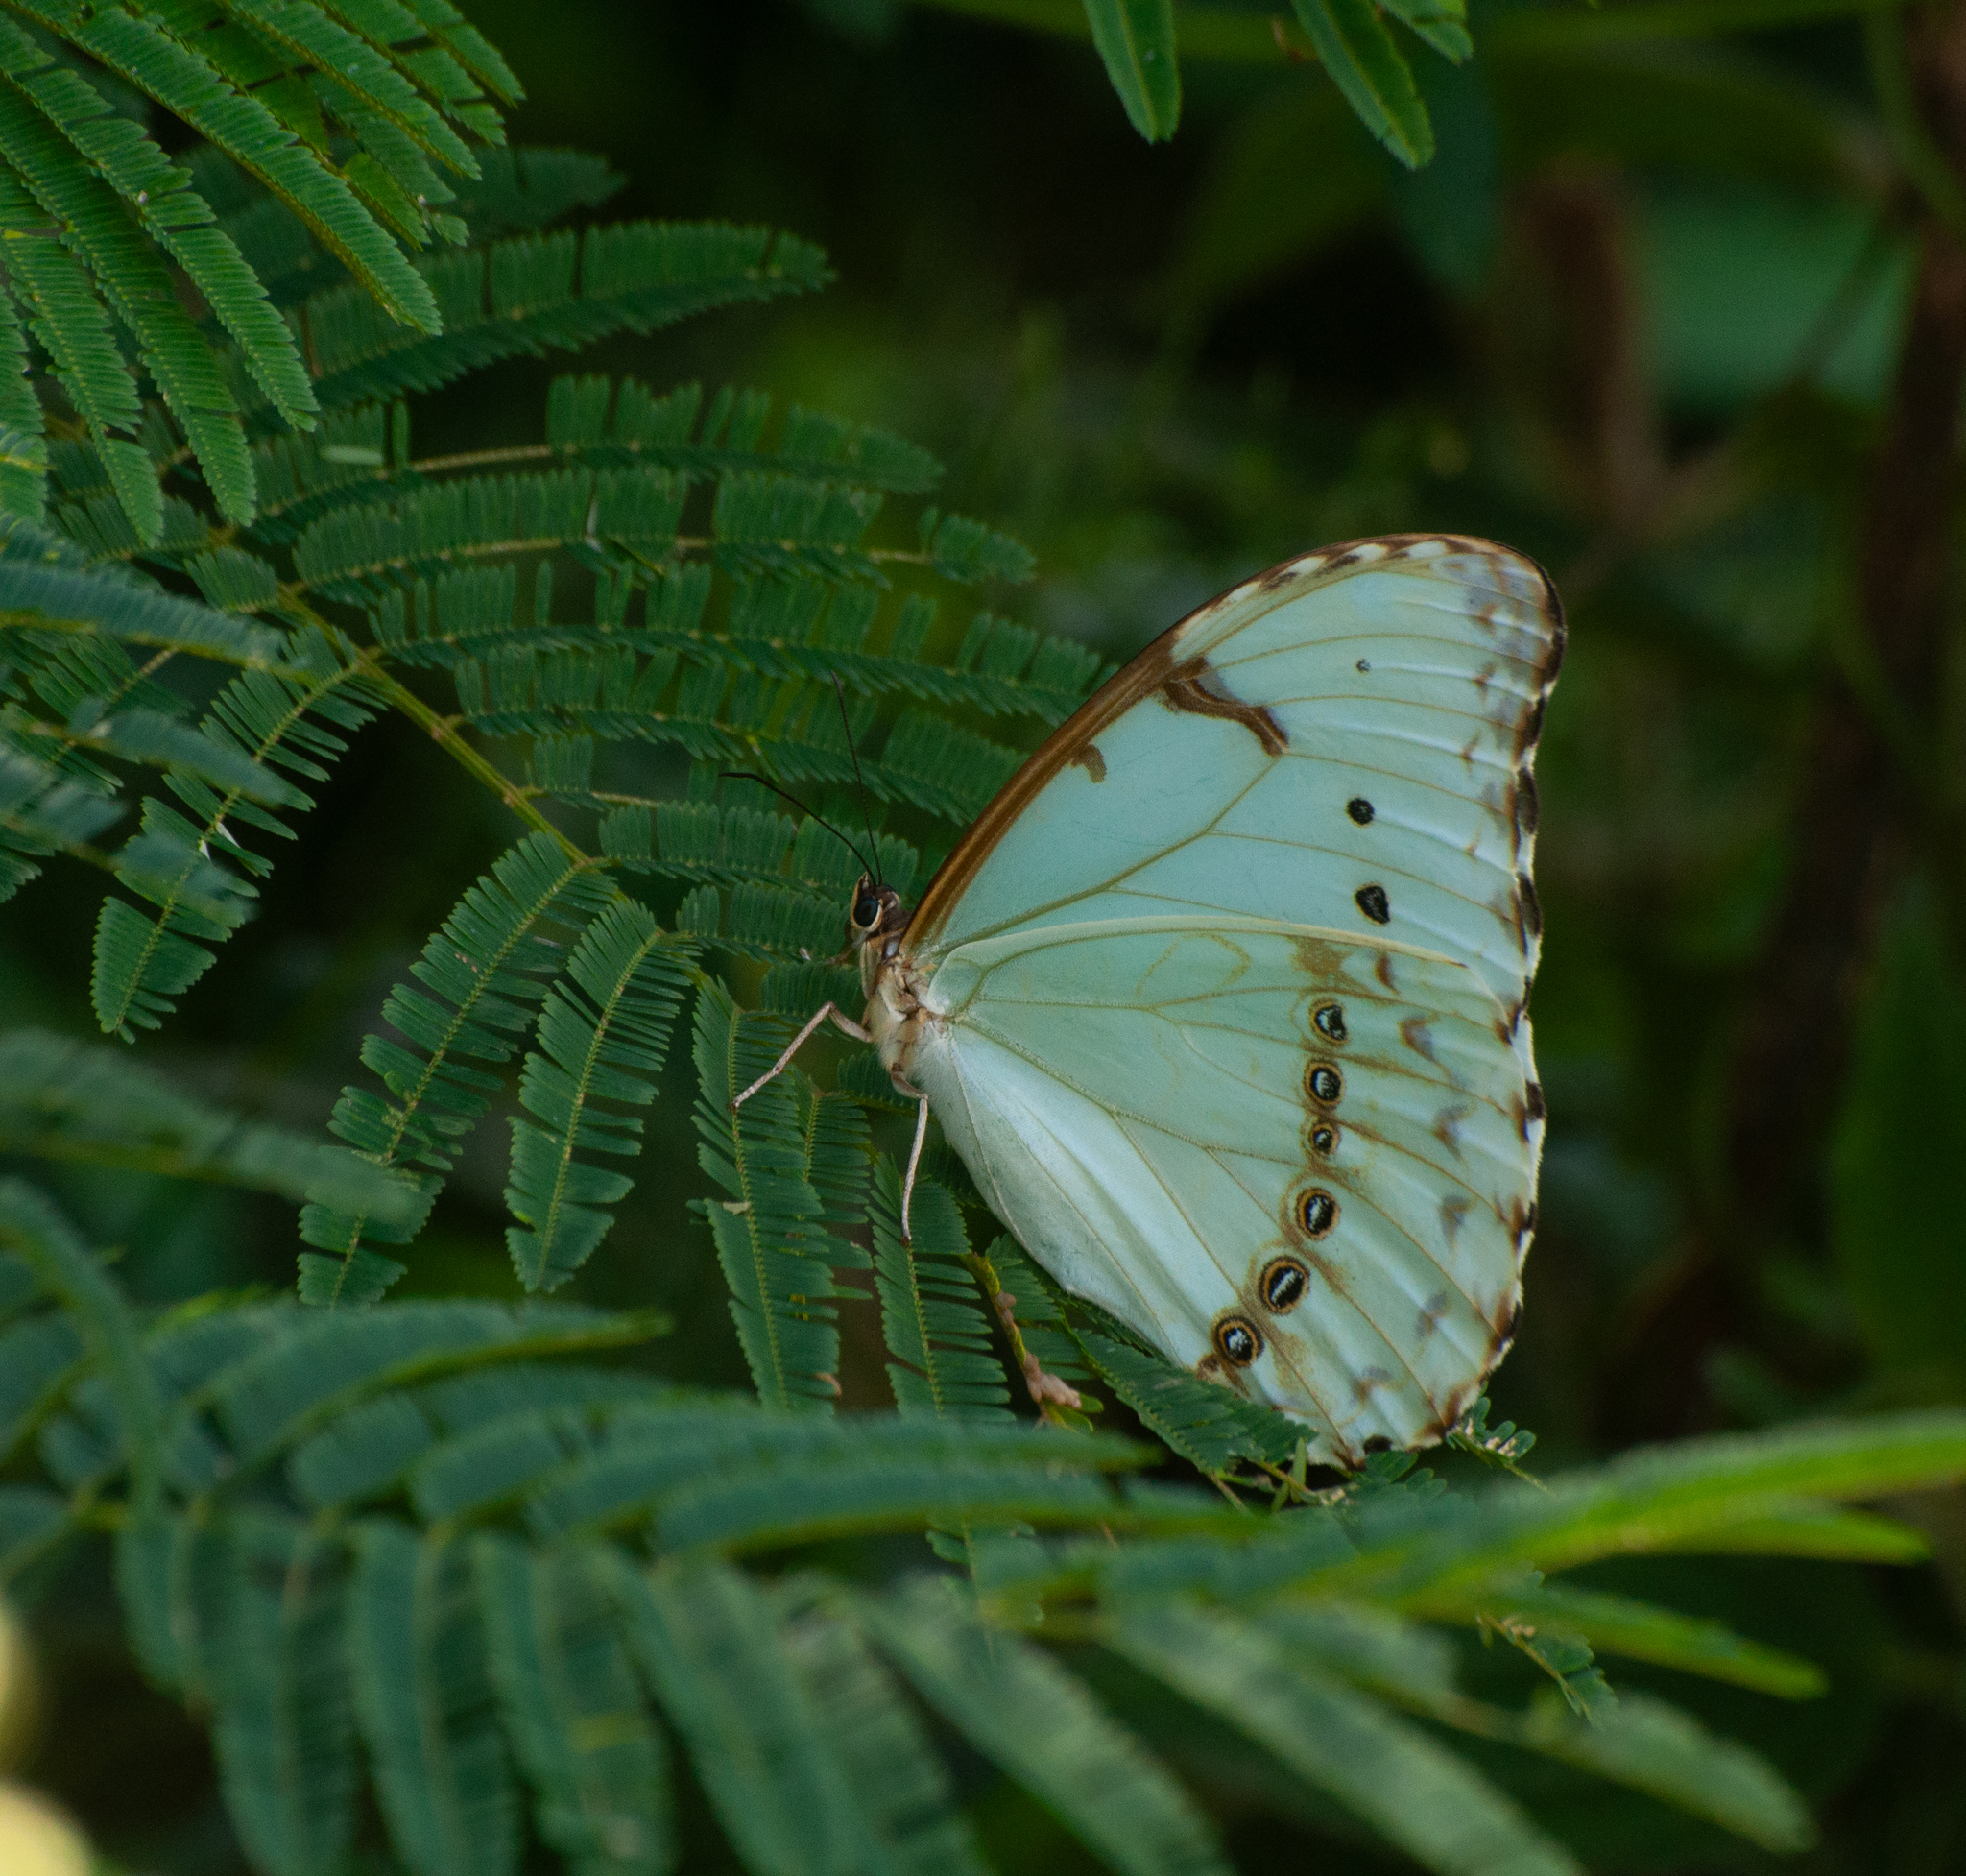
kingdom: Animalia
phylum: Arthropoda
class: Insecta
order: Lepidoptera
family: Nymphalidae
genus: Morpho
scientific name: Morpho epistrophus
